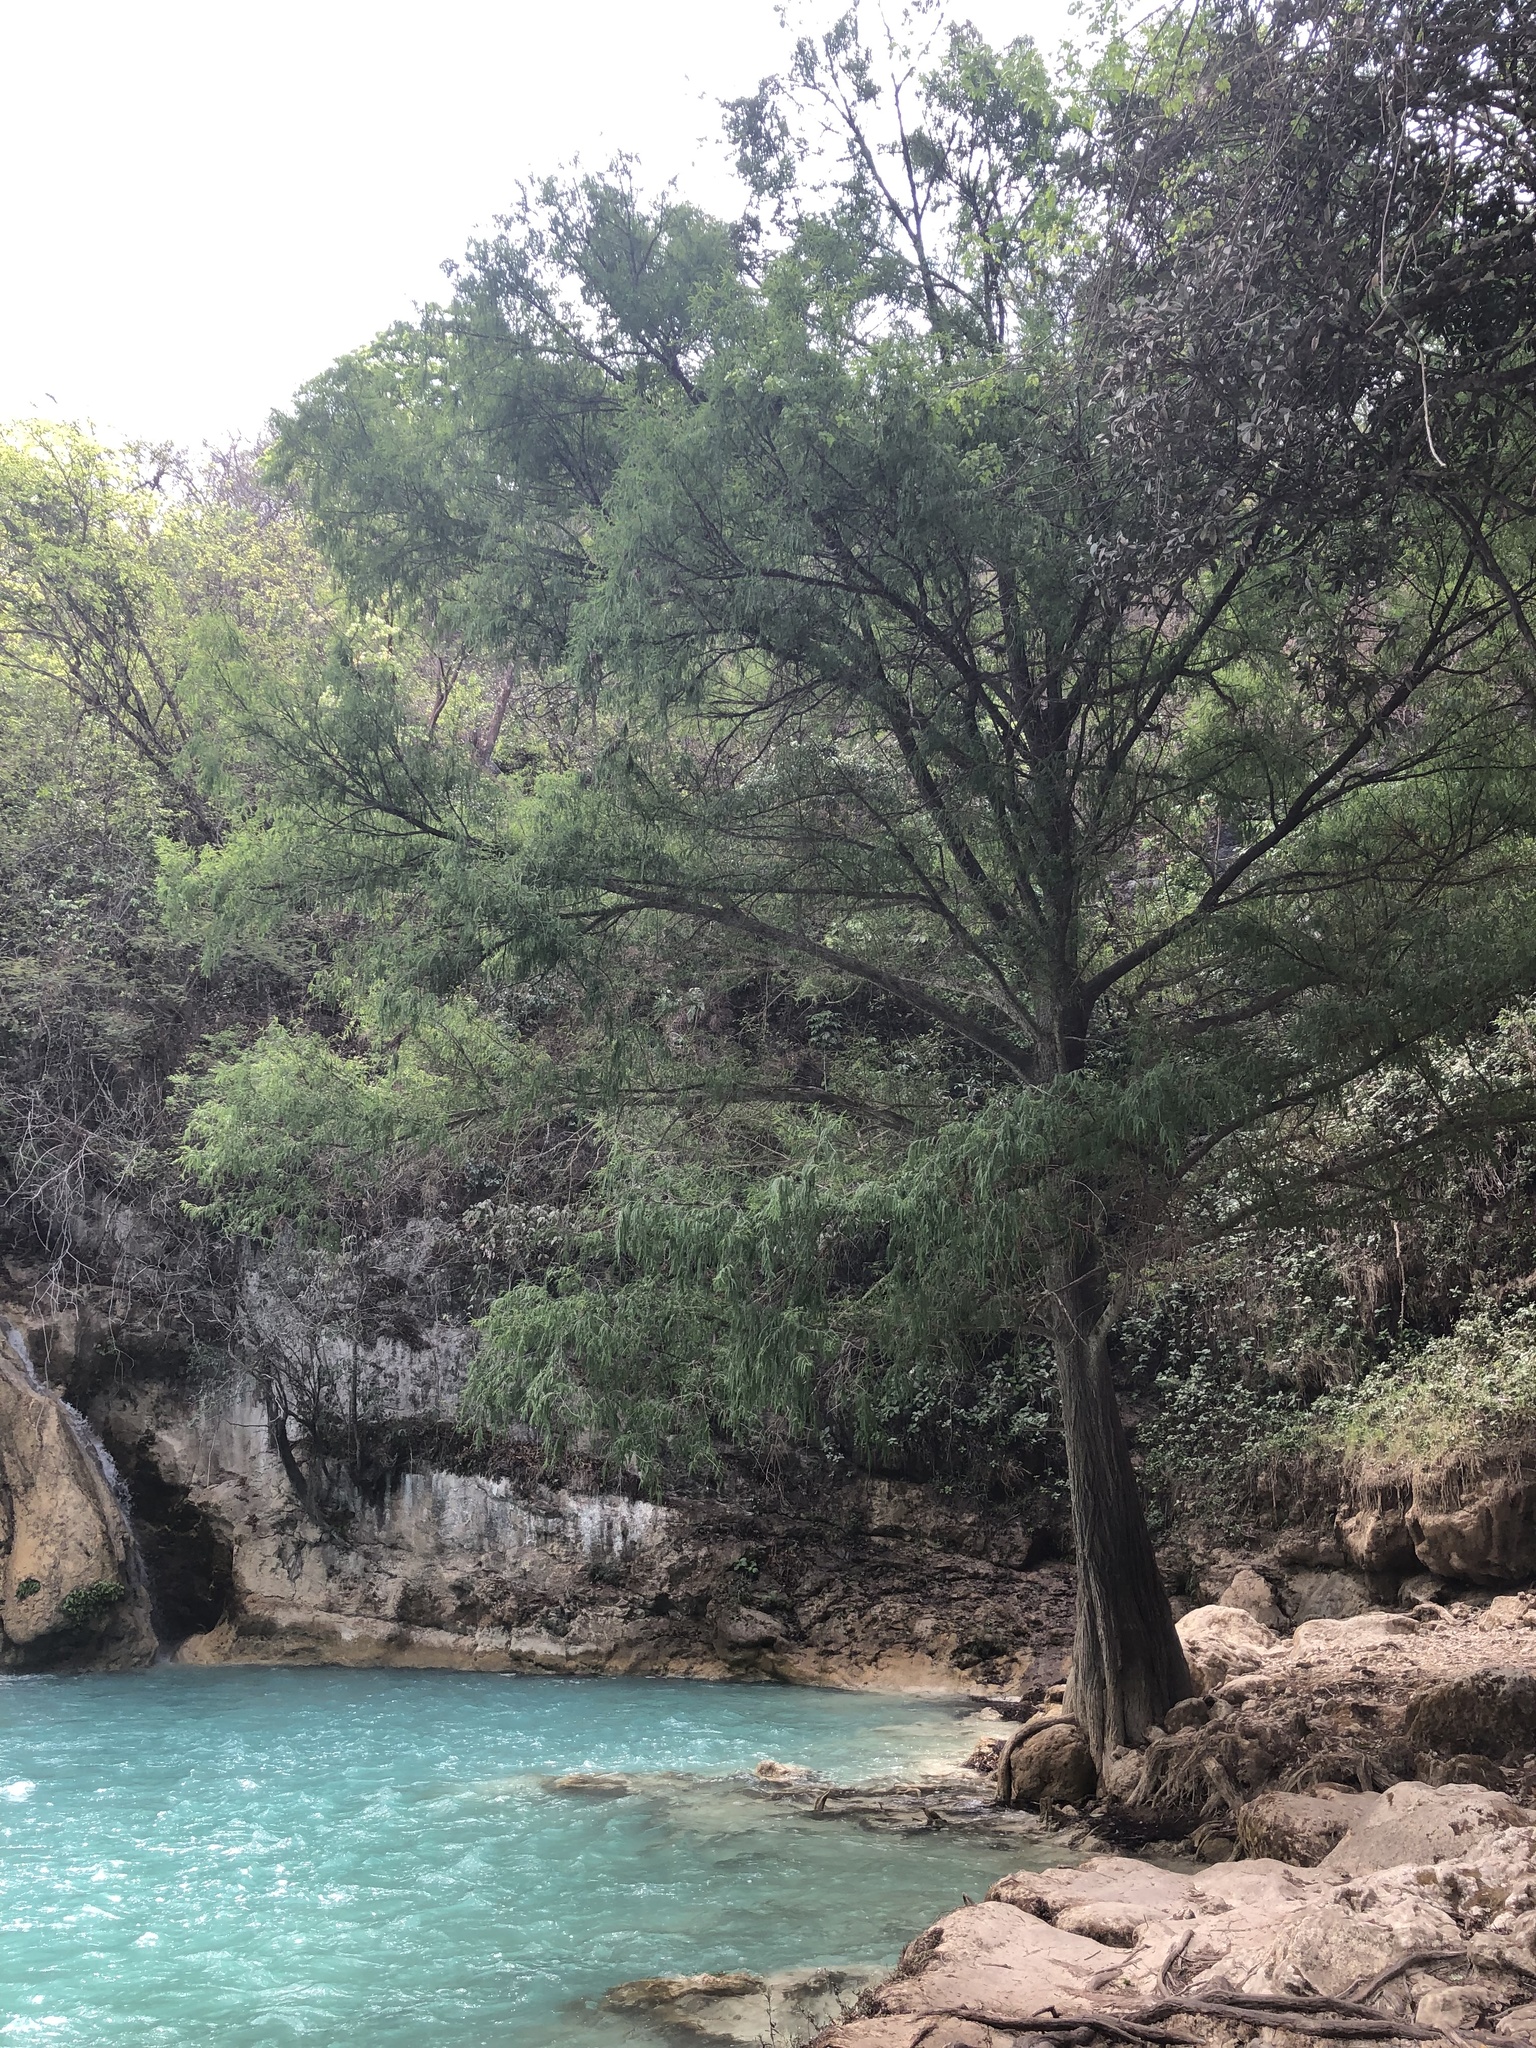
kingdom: Plantae
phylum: Tracheophyta
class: Pinopsida
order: Pinales
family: Cupressaceae
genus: Taxodium
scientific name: Taxodium mucronatum
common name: Montezume bald cypress
